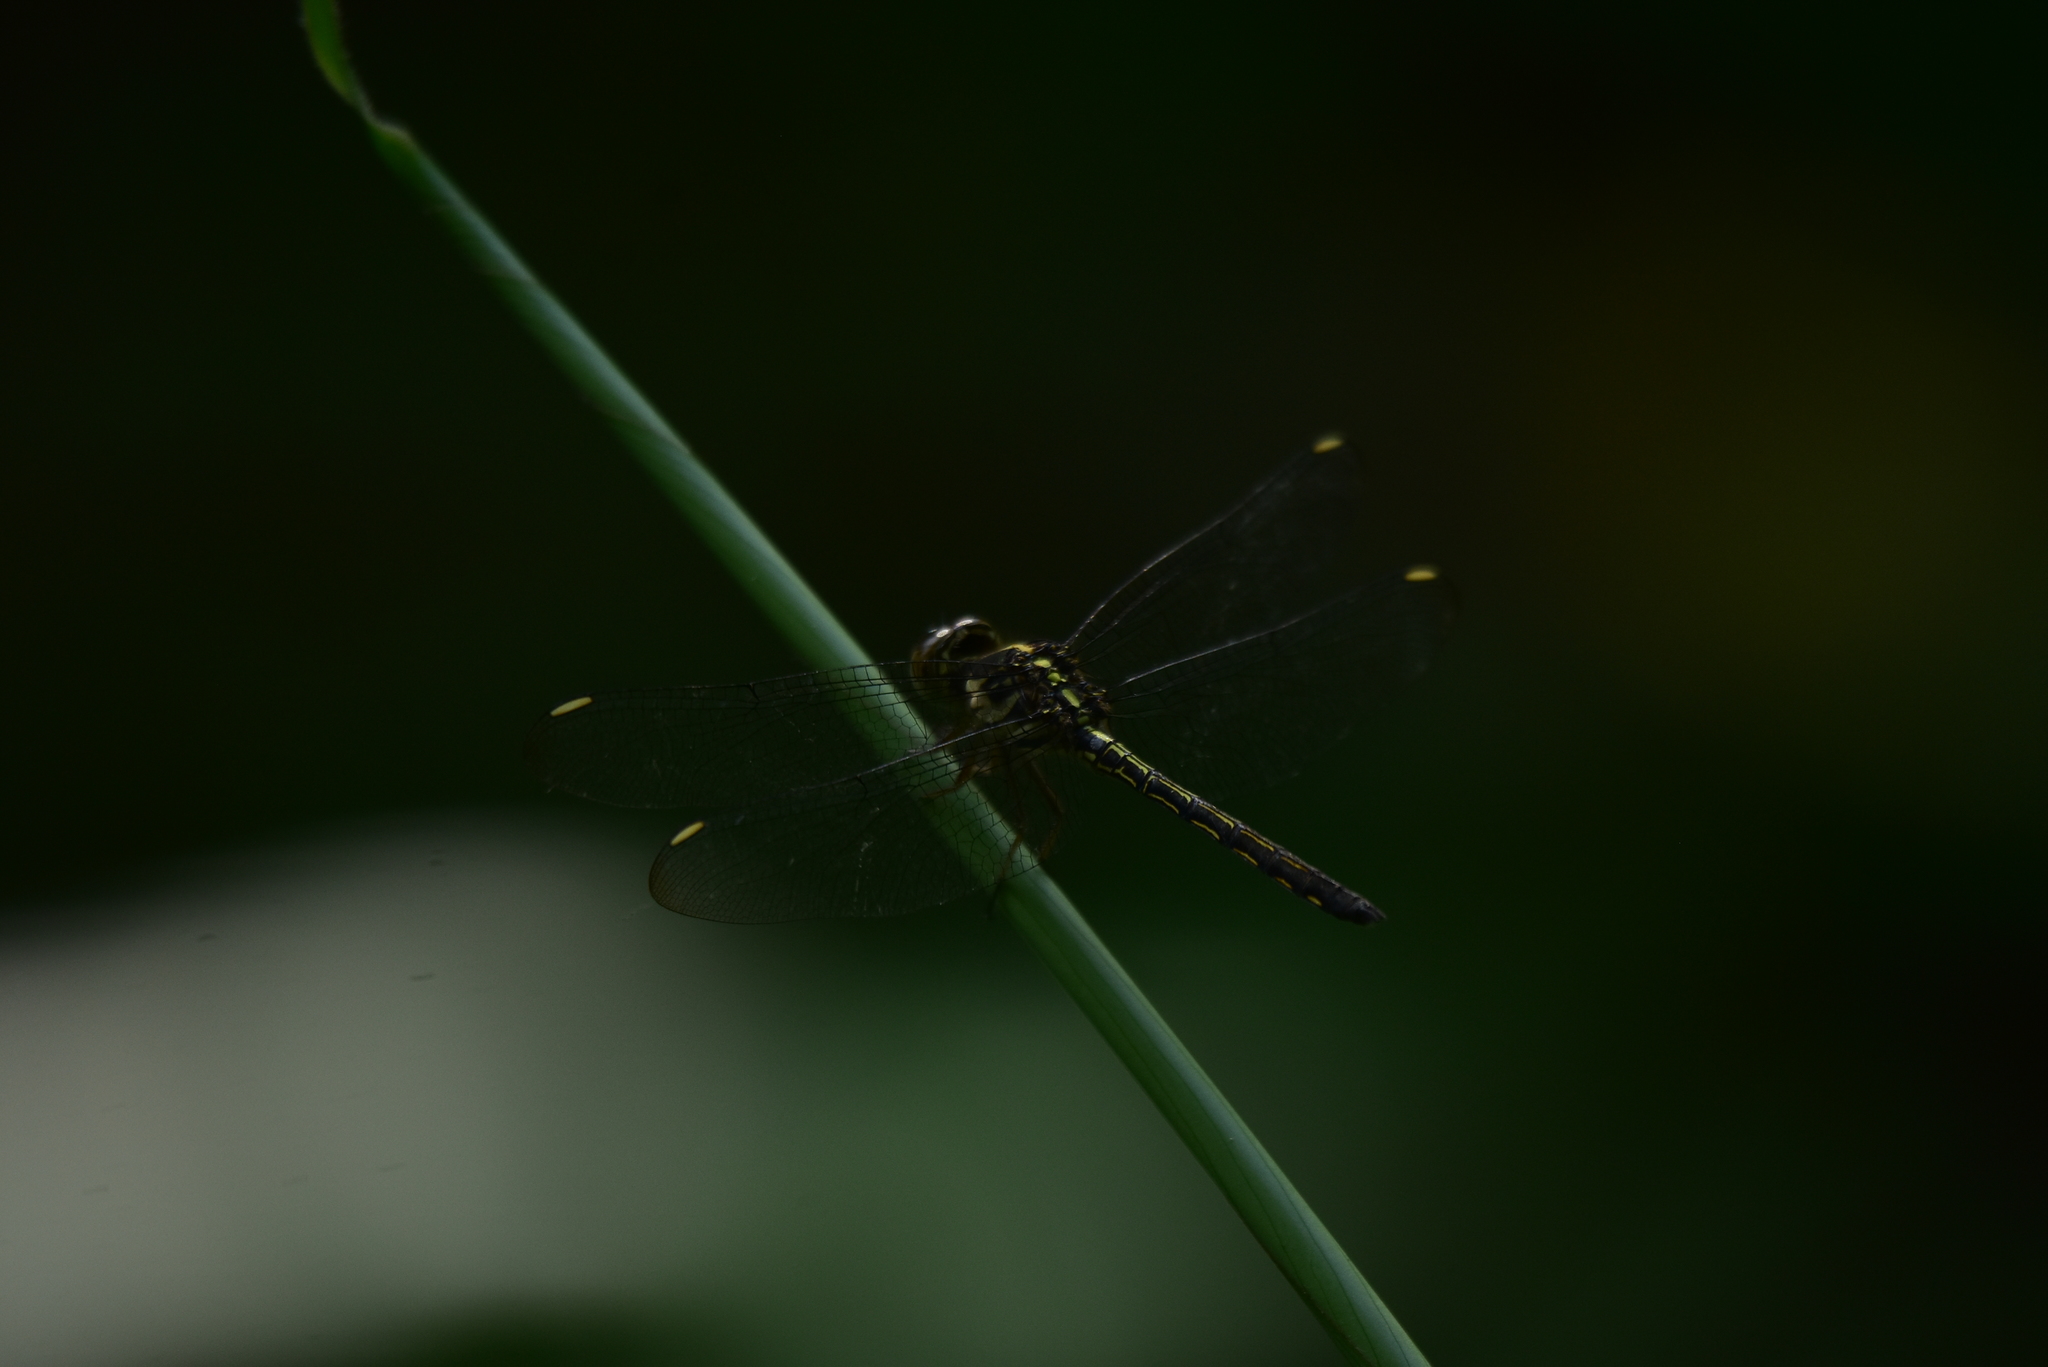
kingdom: Animalia
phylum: Arthropoda
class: Insecta
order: Odonata
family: Libellulidae
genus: Cratilla
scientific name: Cratilla lineata
